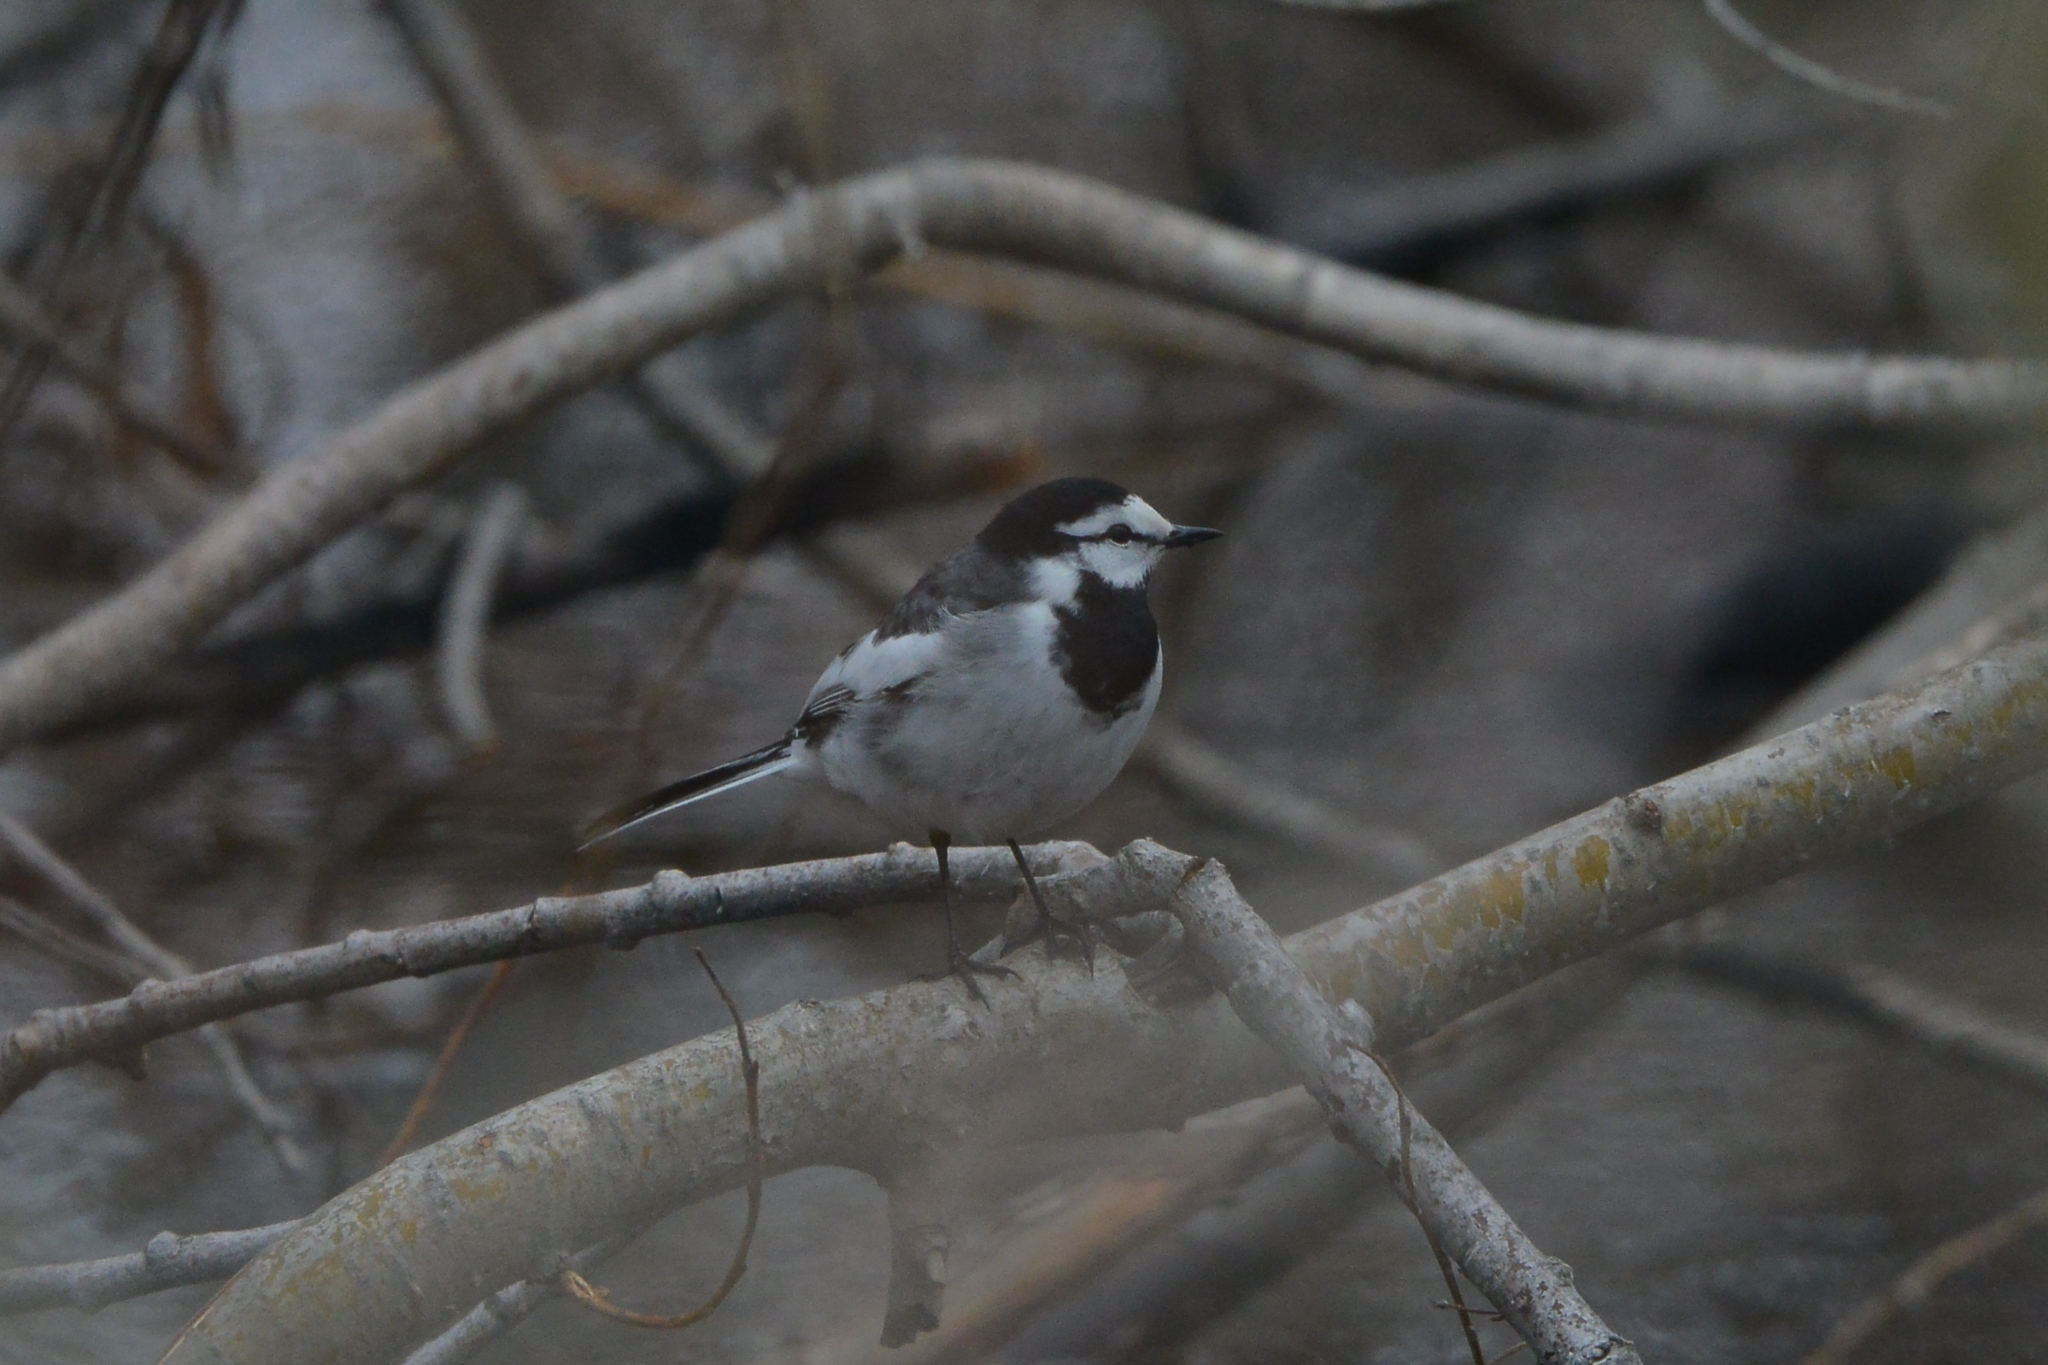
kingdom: Animalia
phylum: Chordata
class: Aves
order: Passeriformes
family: Motacillidae
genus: Motacilla
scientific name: Motacilla alba
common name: White wagtail
